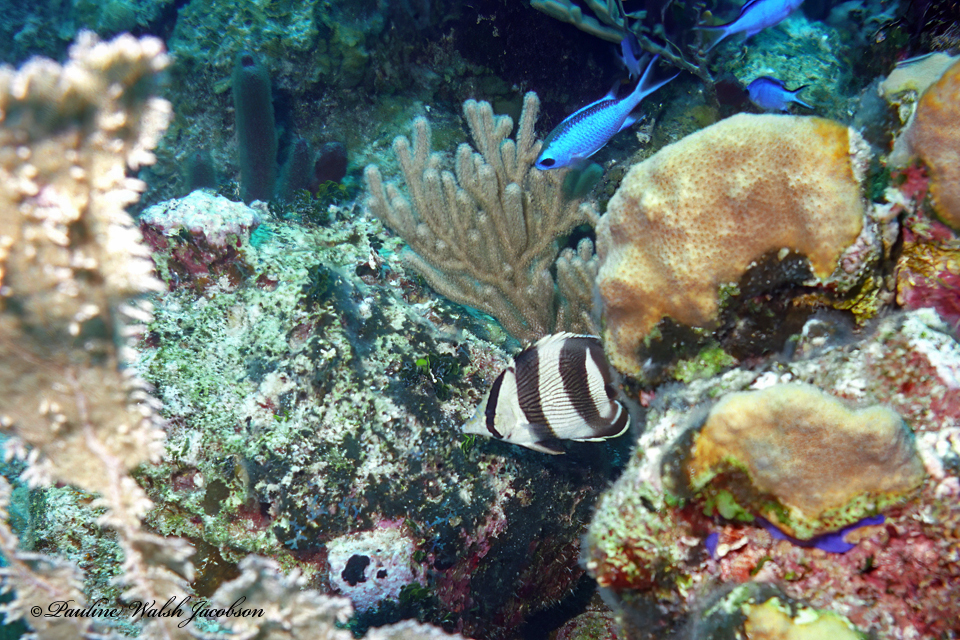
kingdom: Animalia
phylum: Chordata
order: Perciformes
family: Pomacentridae
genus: Chromis
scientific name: Chromis cyanea
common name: Blue chromis
